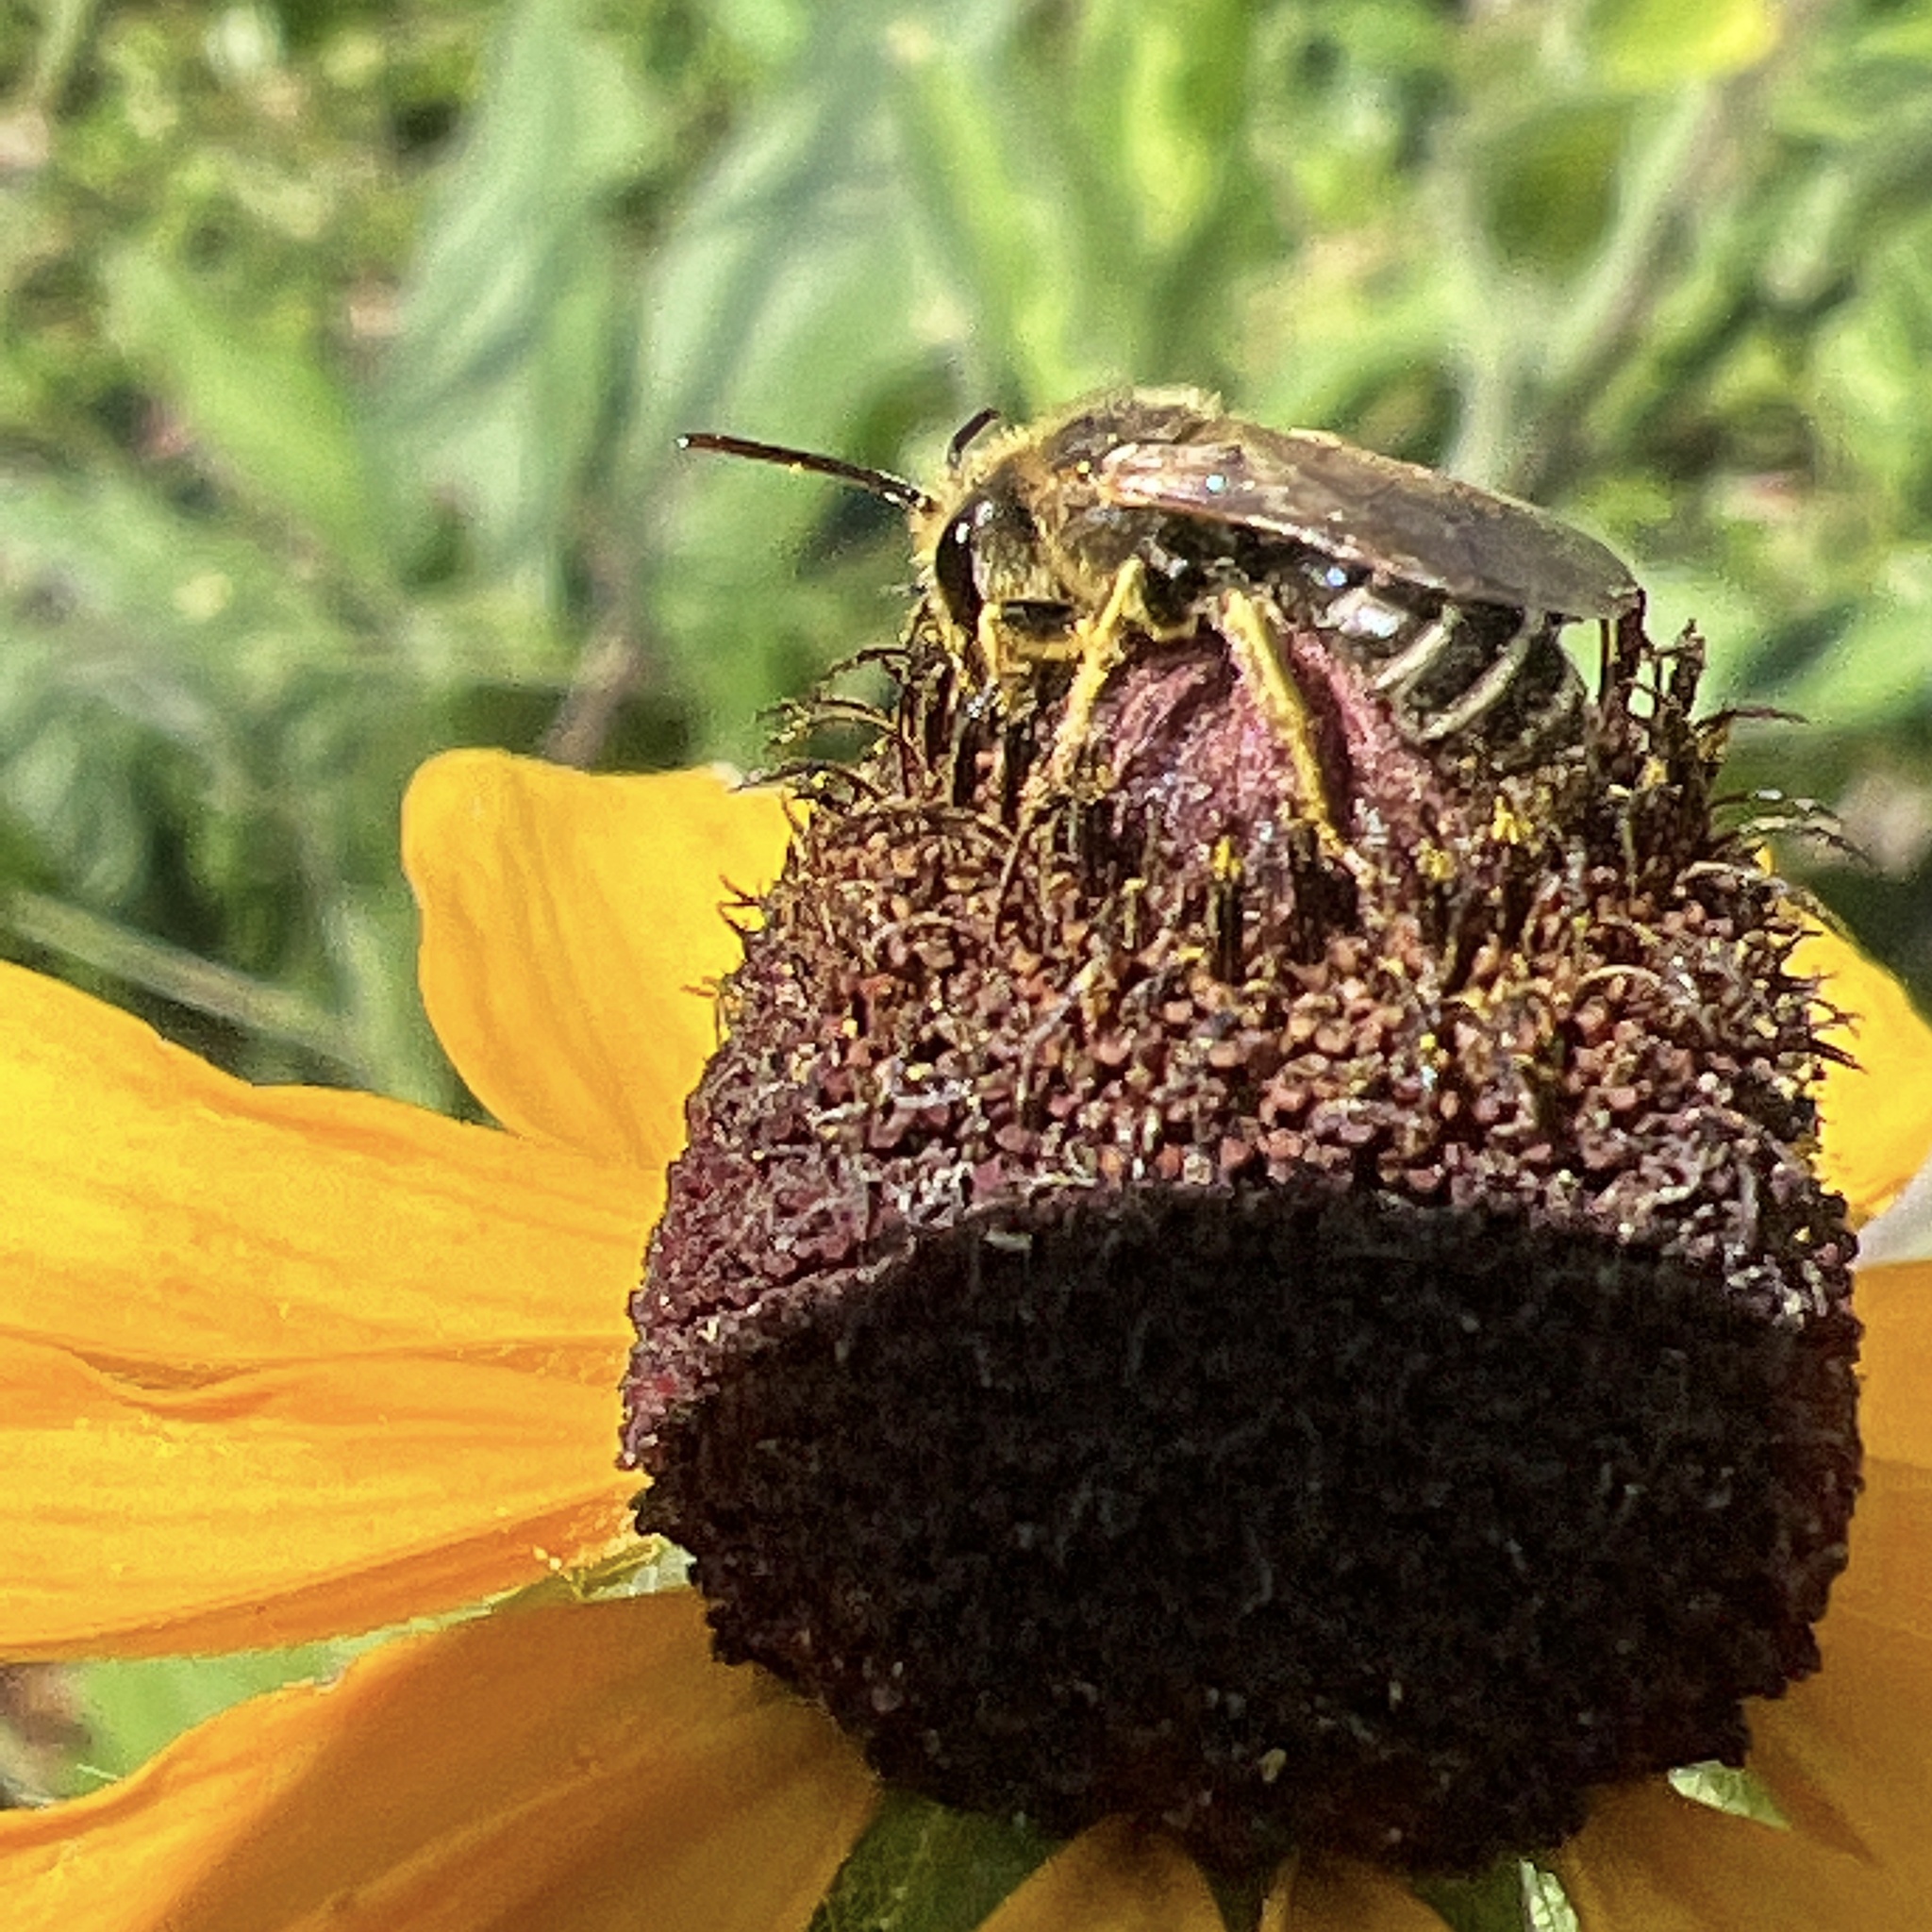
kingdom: Animalia
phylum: Arthropoda
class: Insecta
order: Hymenoptera
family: Halictidae
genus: Halictus
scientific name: Halictus ligatus
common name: Ligated furrow bee
